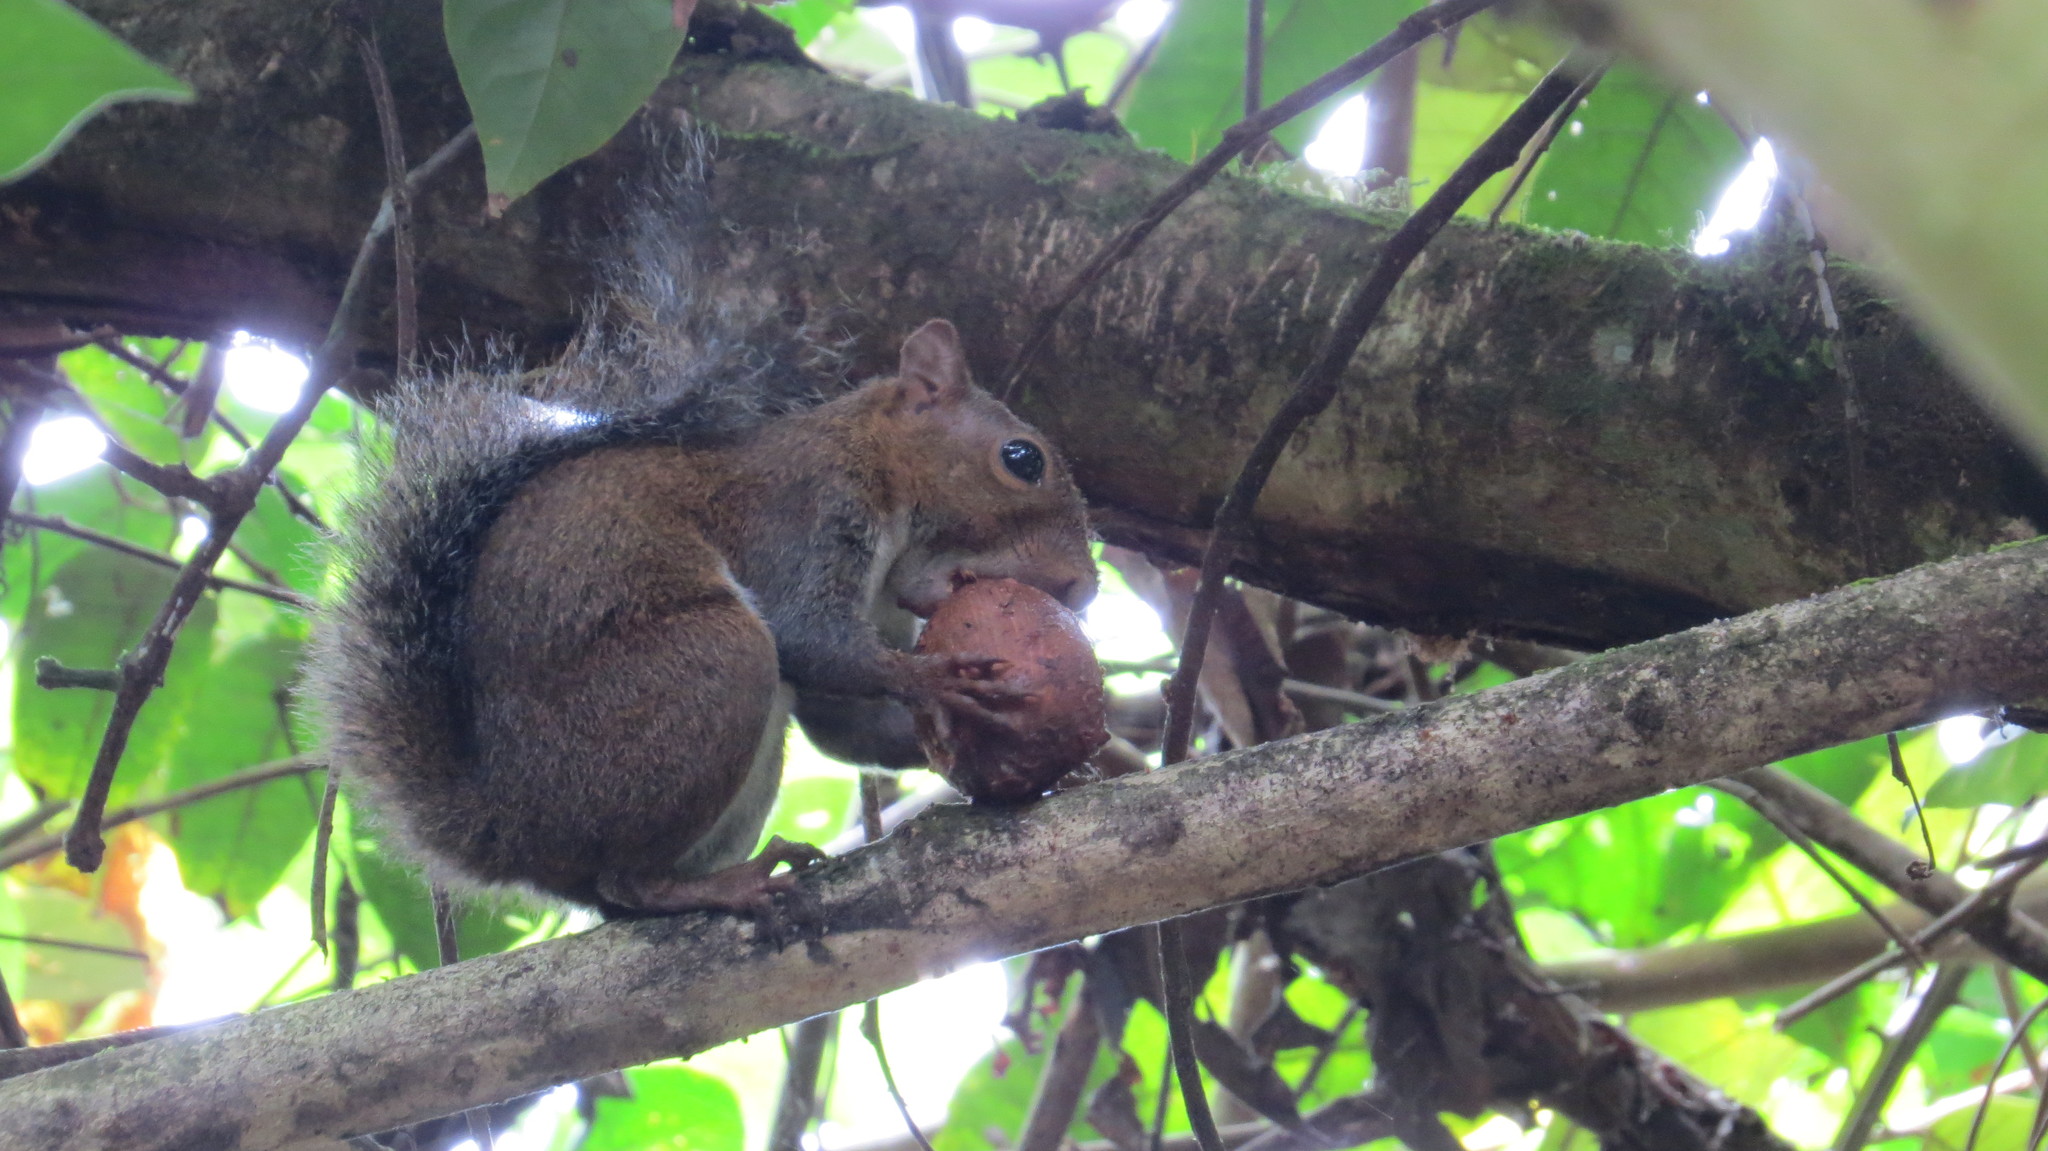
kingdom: Animalia
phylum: Chordata
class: Mammalia
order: Rodentia
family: Sciuridae
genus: Sciurus
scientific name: Sciurus deppei
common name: Deppe's squirrel
